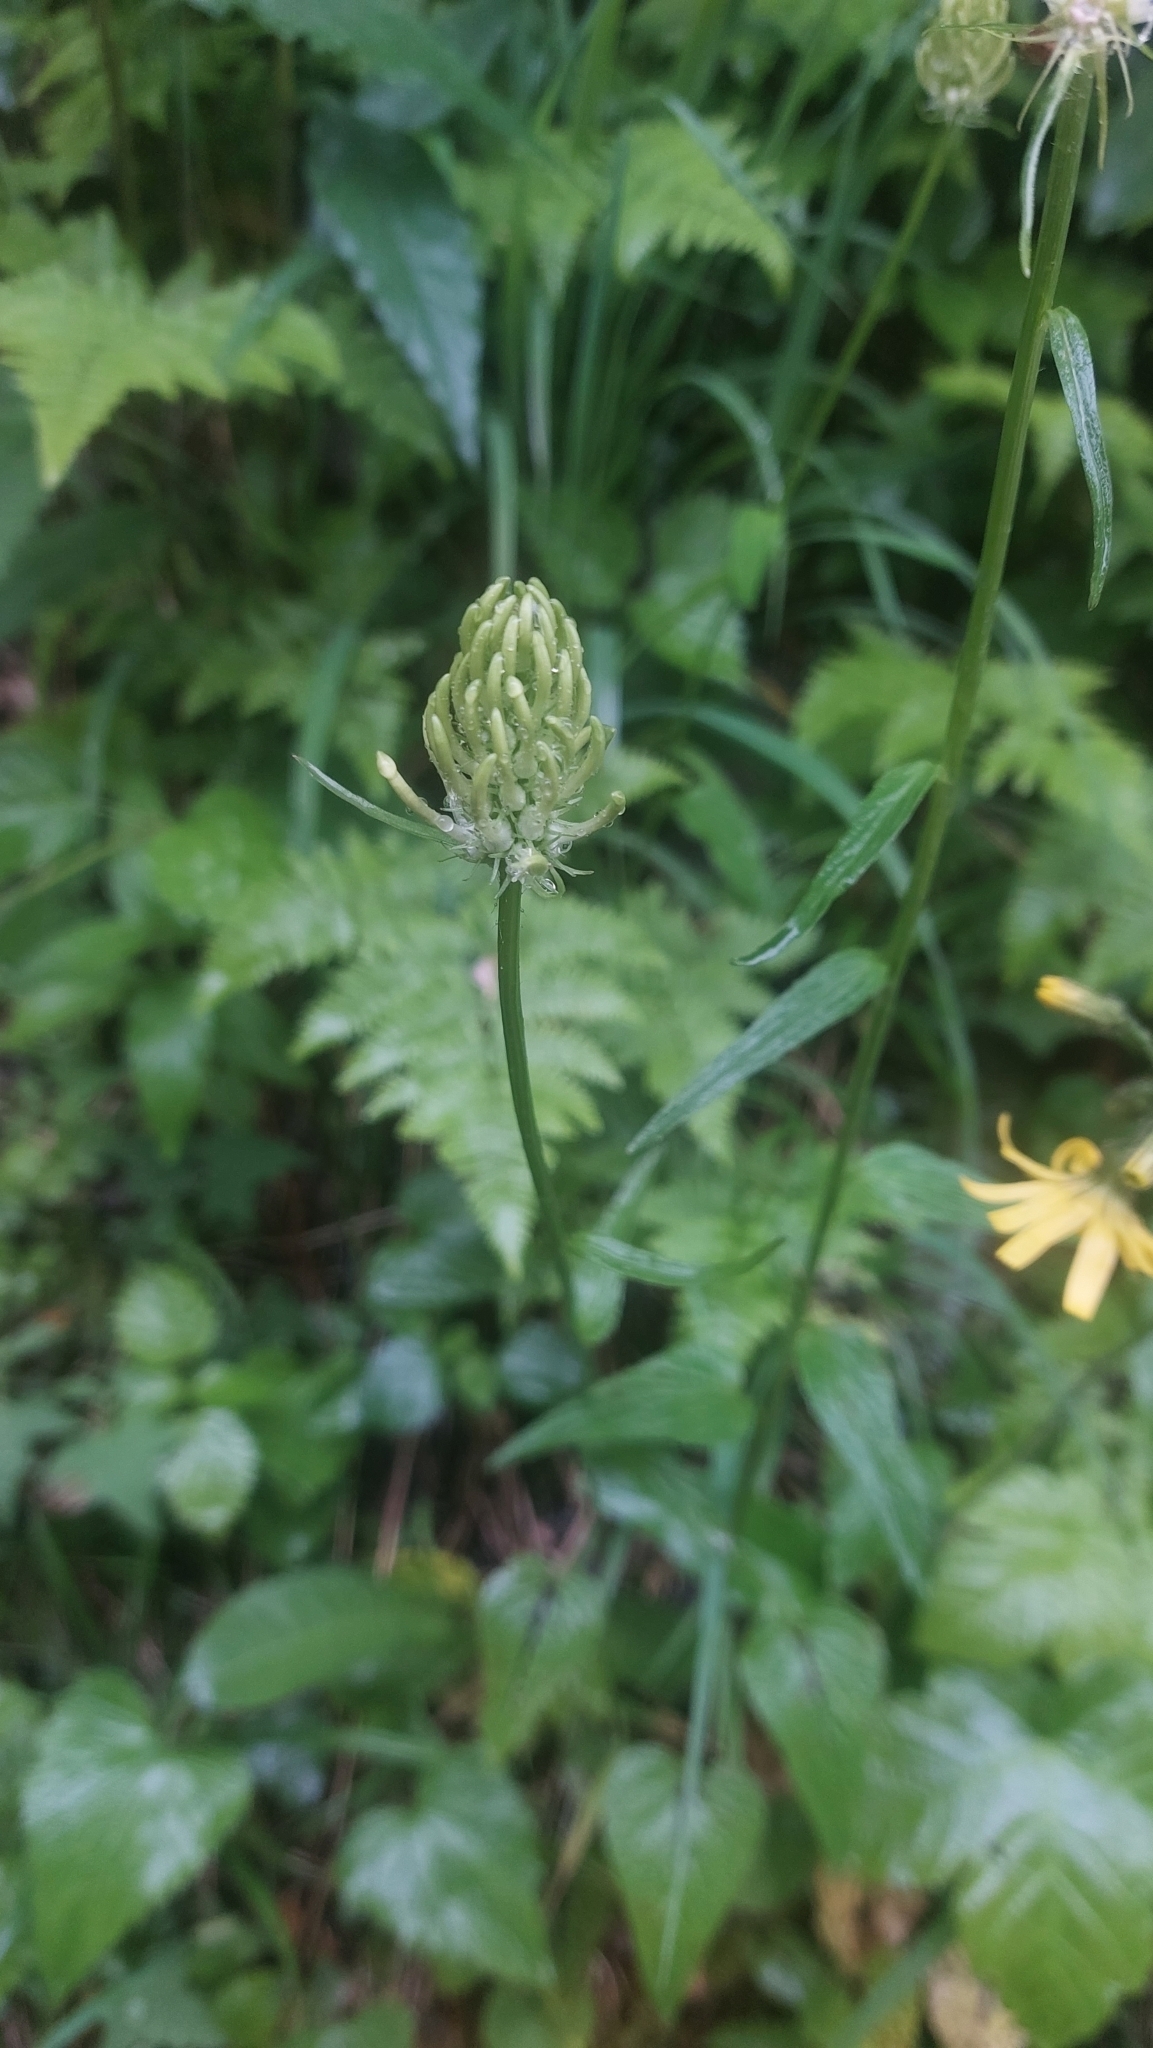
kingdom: Plantae
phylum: Tracheophyta
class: Magnoliopsida
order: Asterales
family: Campanulaceae
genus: Phyteuma
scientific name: Phyteuma spicatum
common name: Spiked rampion
